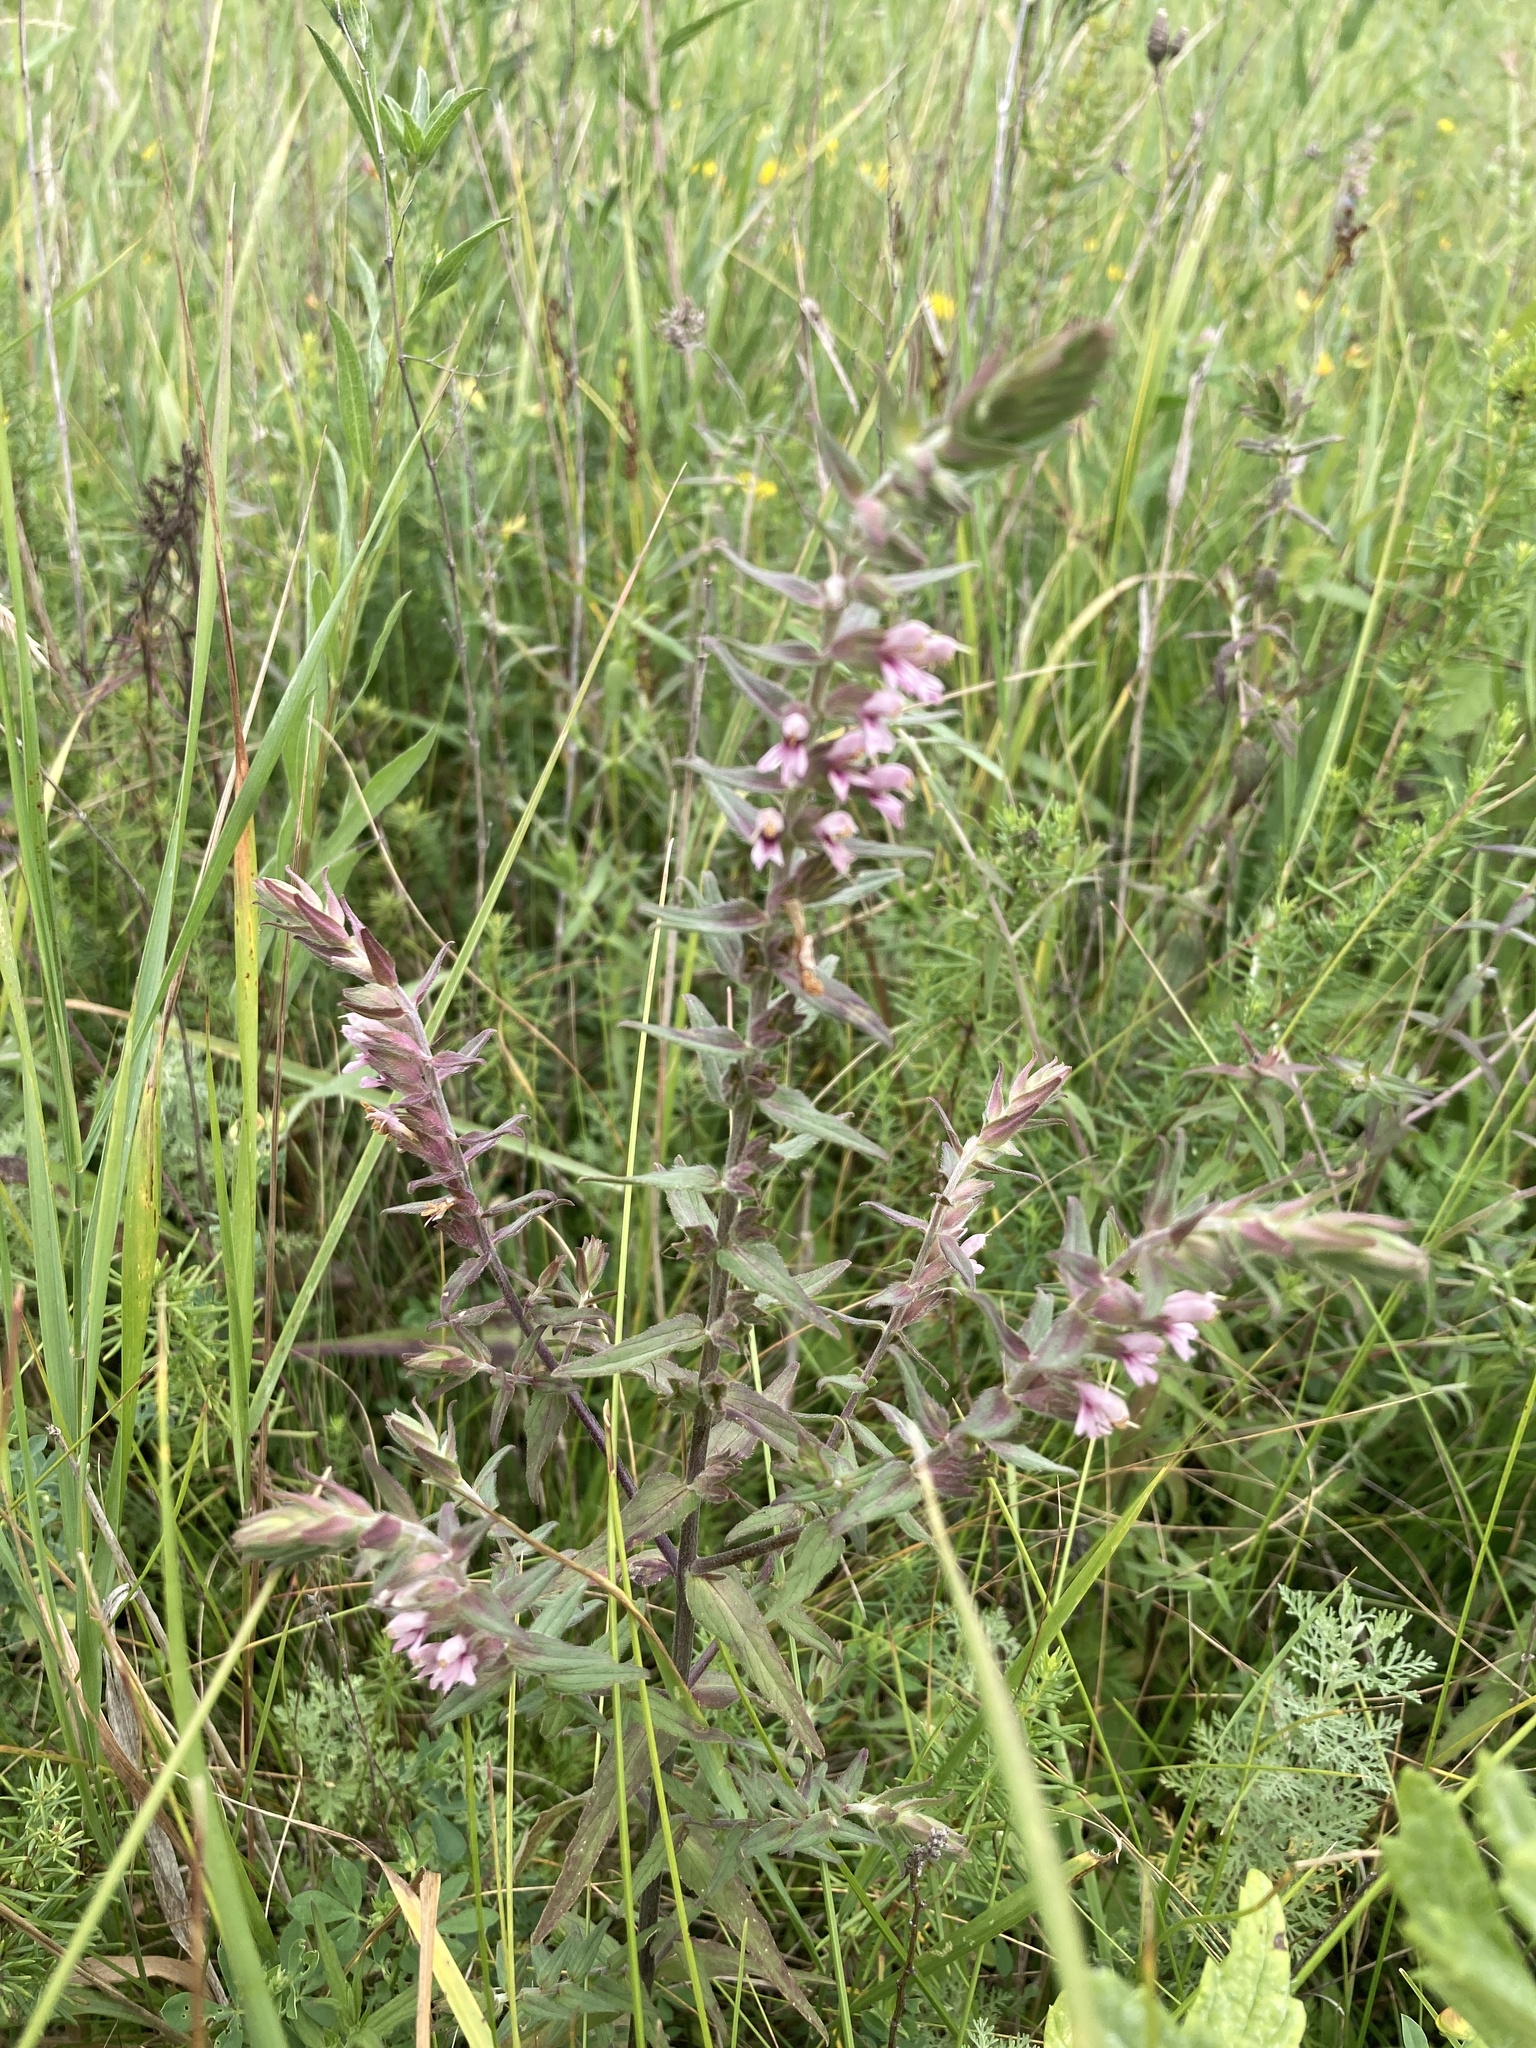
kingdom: Plantae
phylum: Tracheophyta
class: Magnoliopsida
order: Lamiales
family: Orobanchaceae
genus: Odontites
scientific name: Odontites vulgaris
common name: Broomrape
